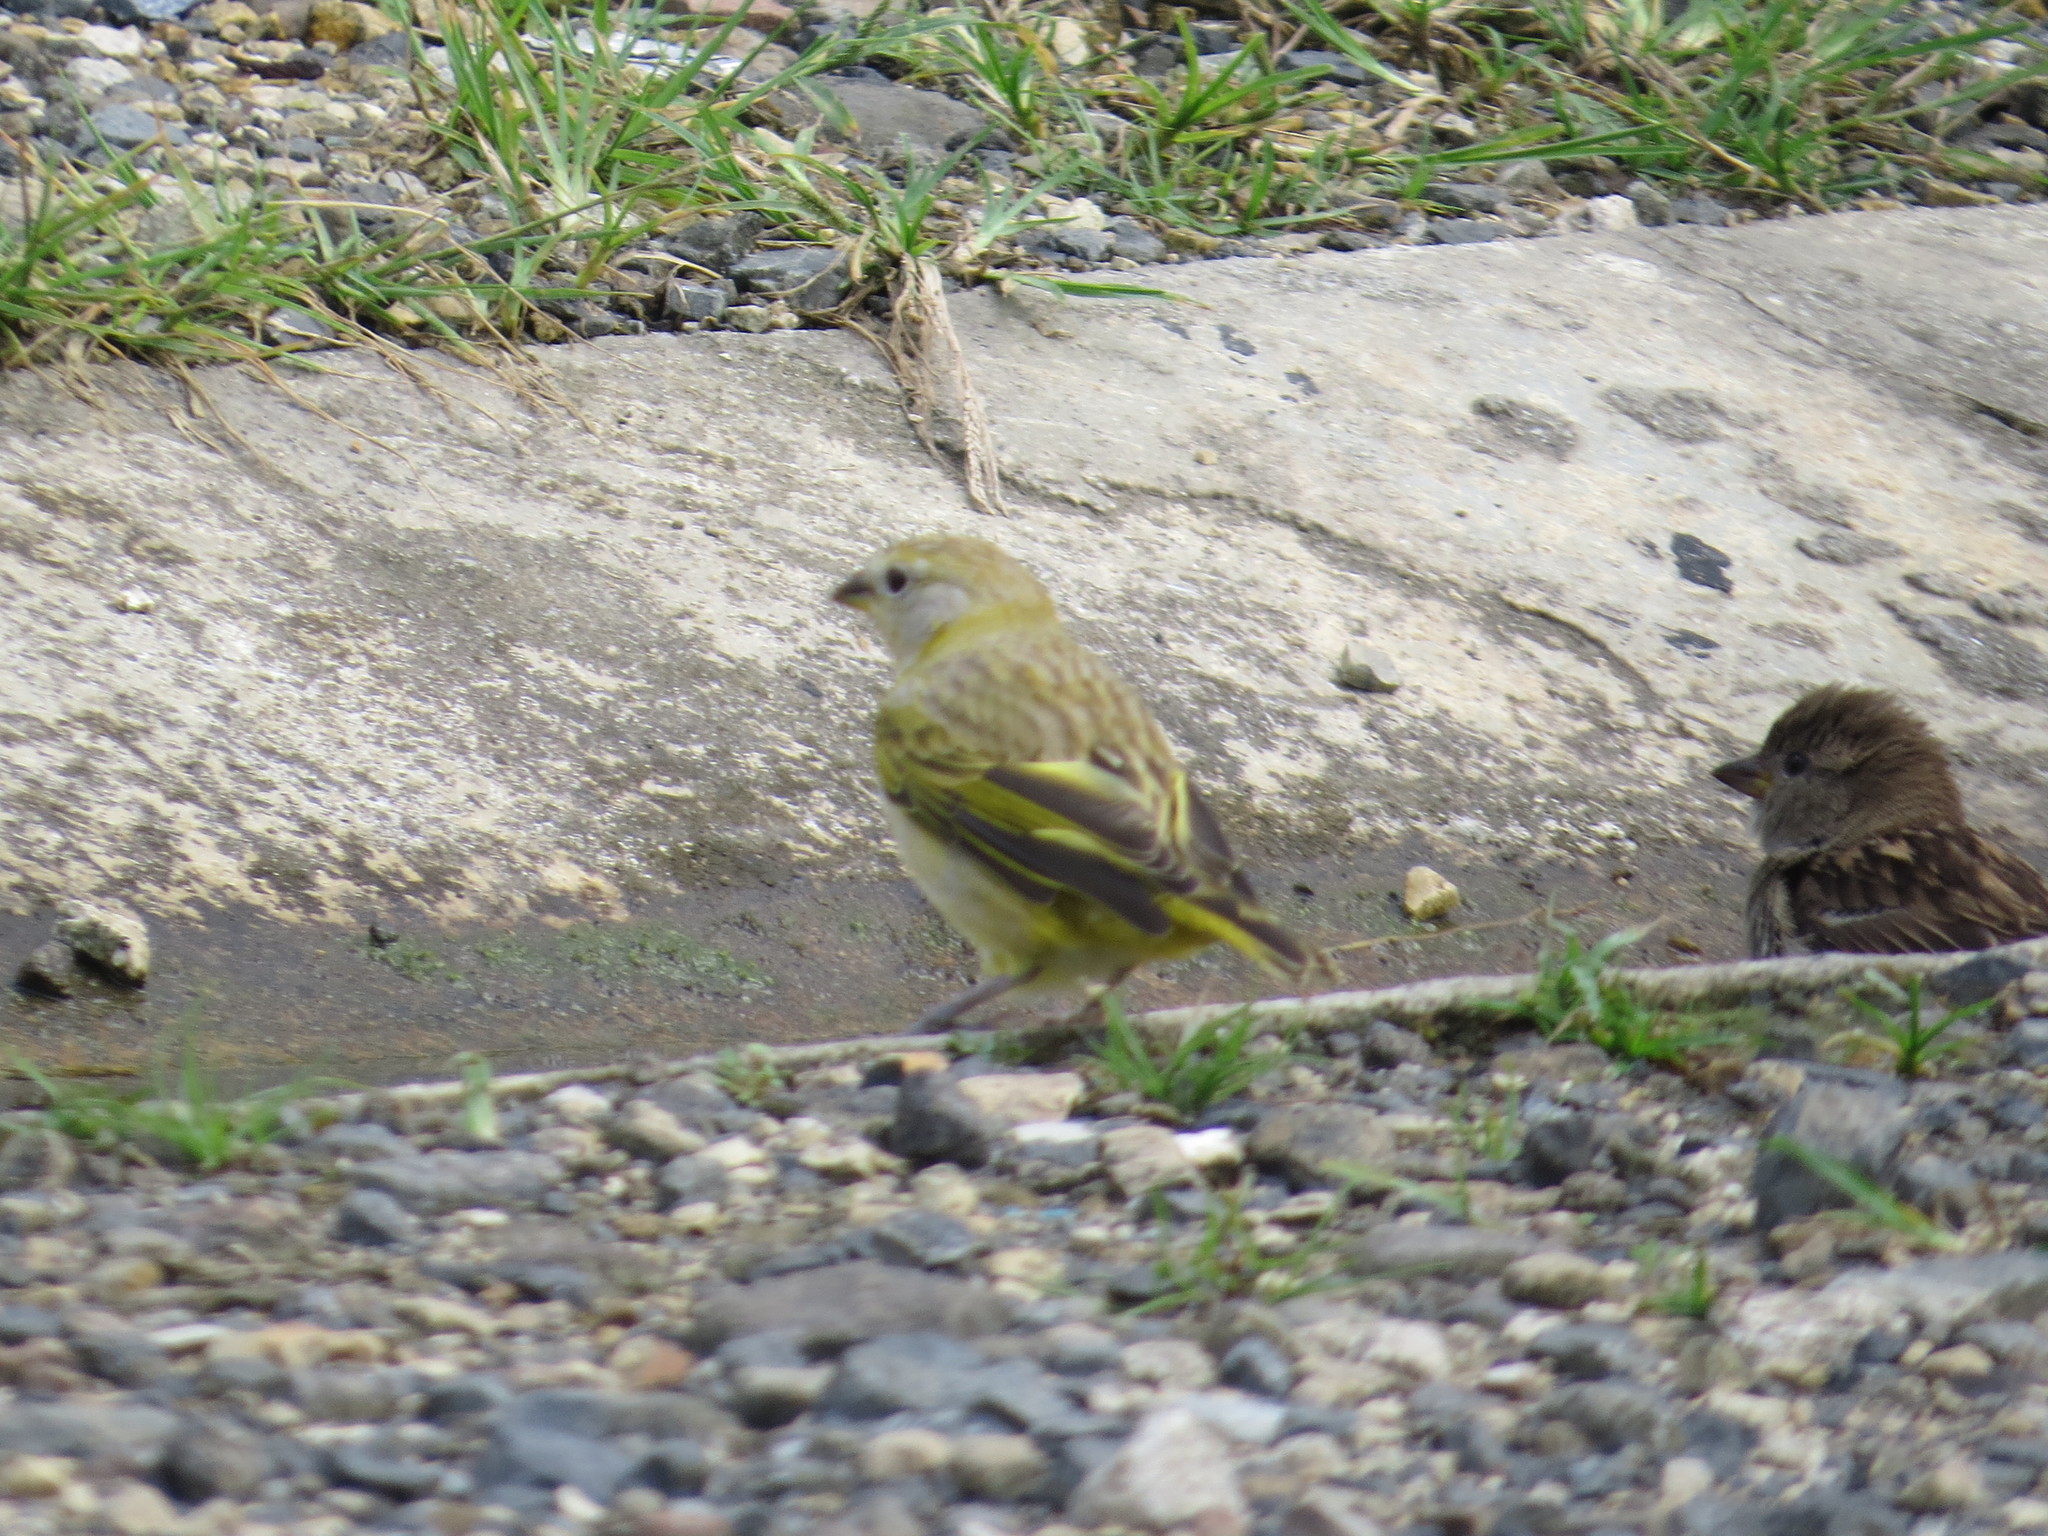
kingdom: Animalia
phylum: Chordata
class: Aves
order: Passeriformes
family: Thraupidae
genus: Sicalis
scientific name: Sicalis flaveola
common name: Saffron finch
